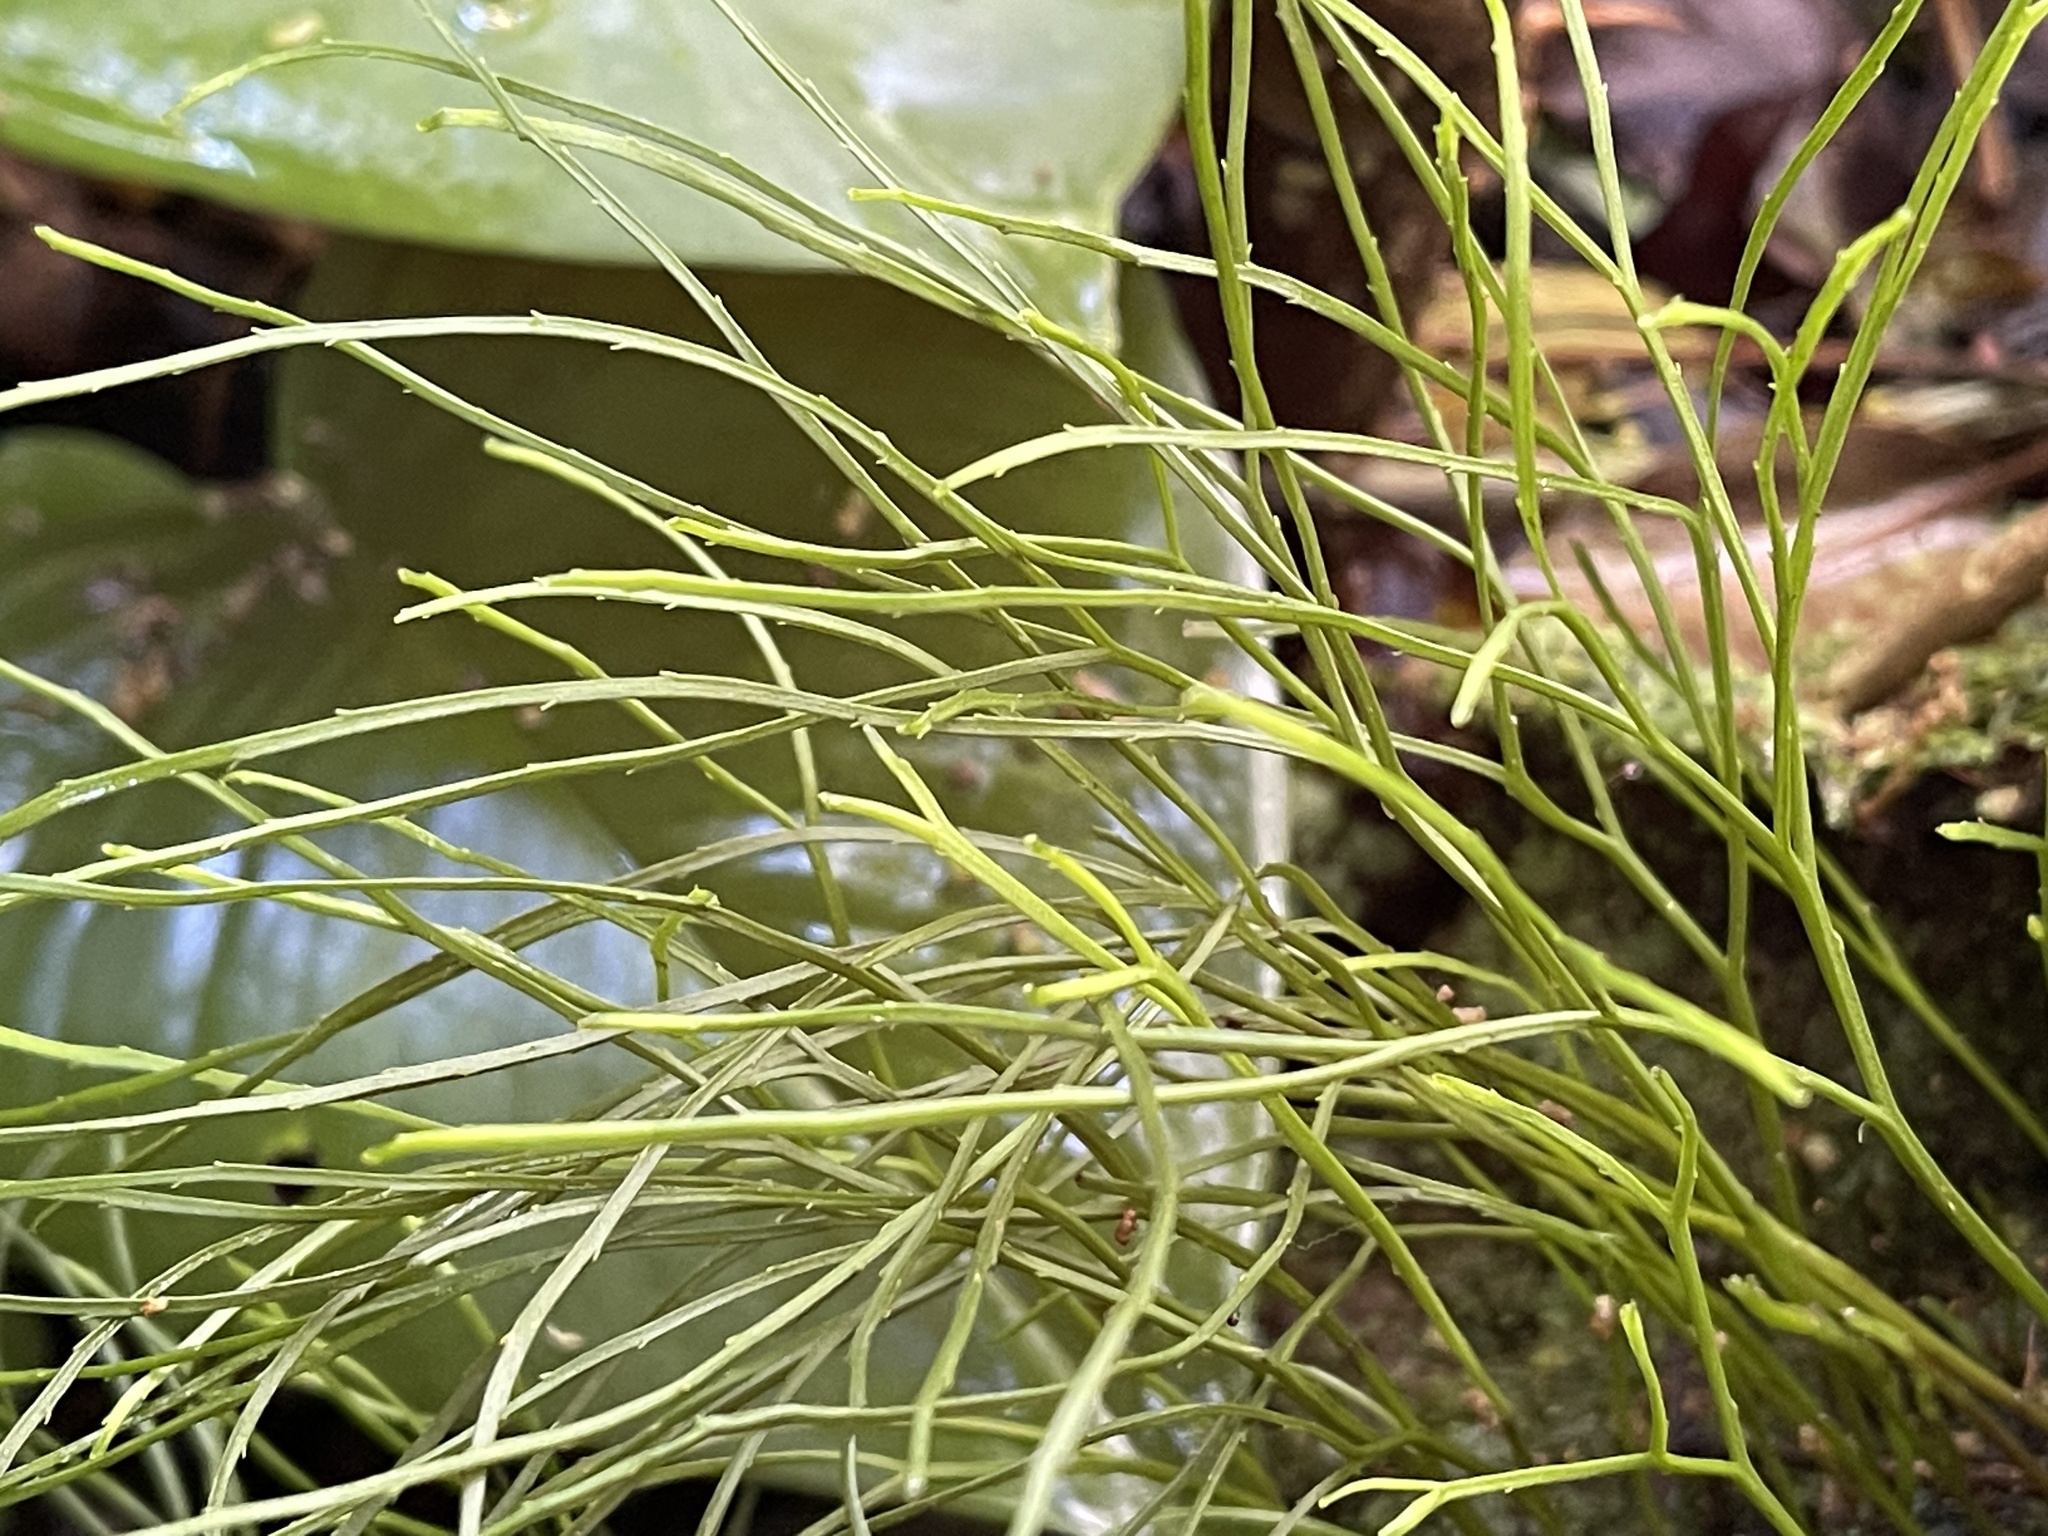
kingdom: Plantae
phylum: Tracheophyta
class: Polypodiopsida
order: Psilotales
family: Psilotaceae
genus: Psilotum
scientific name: Psilotum nudum
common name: Skeleton fork fern
